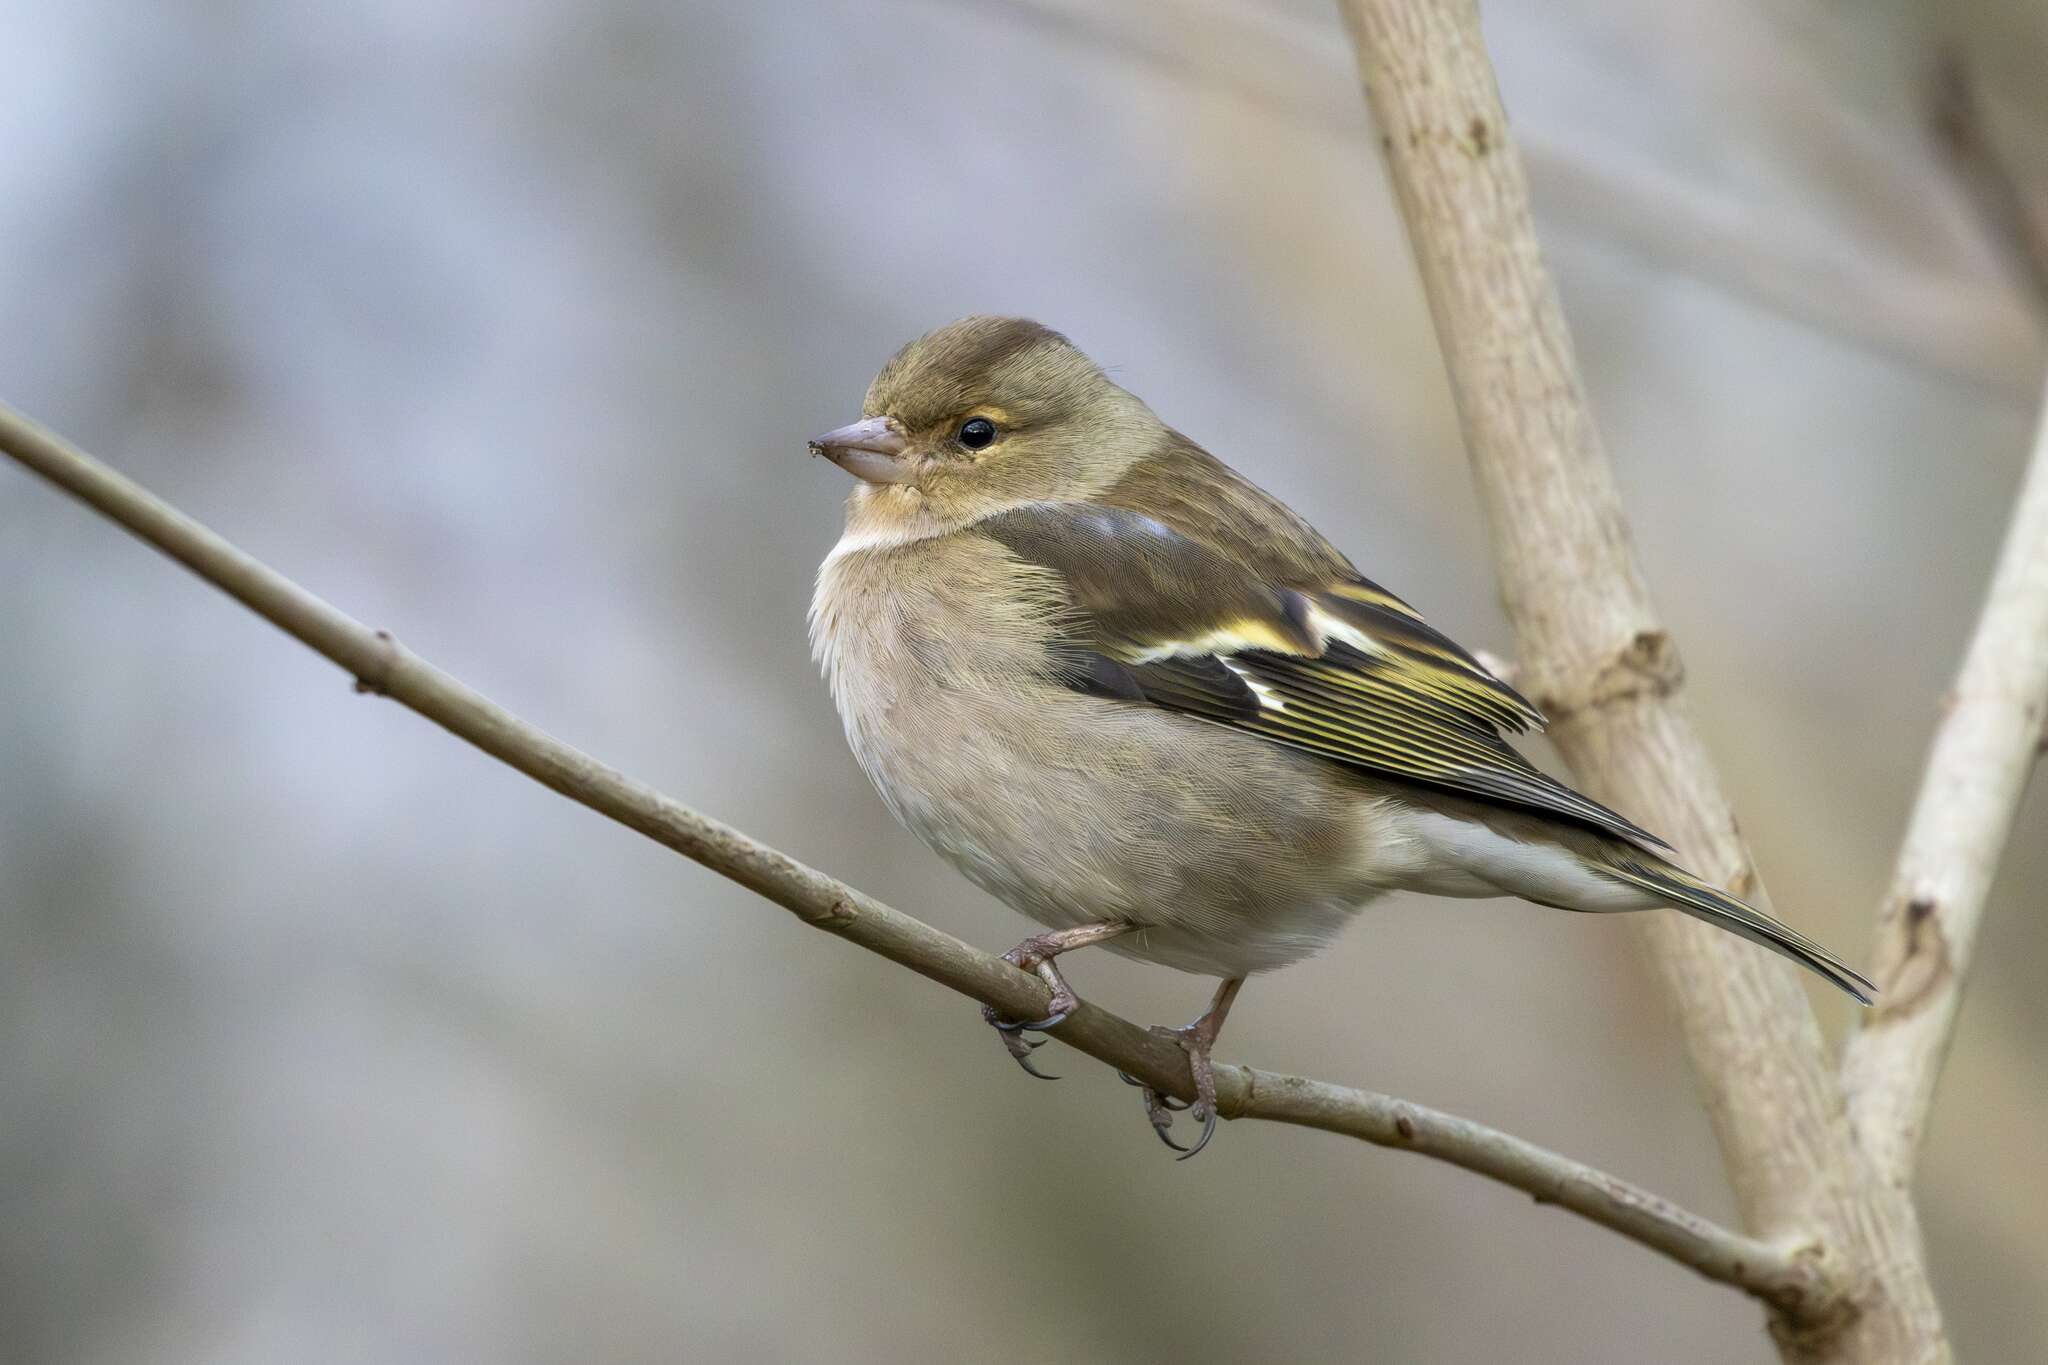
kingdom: Animalia
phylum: Chordata
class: Aves
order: Passeriformes
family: Fringillidae
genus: Fringilla
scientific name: Fringilla coelebs
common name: Common chaffinch
